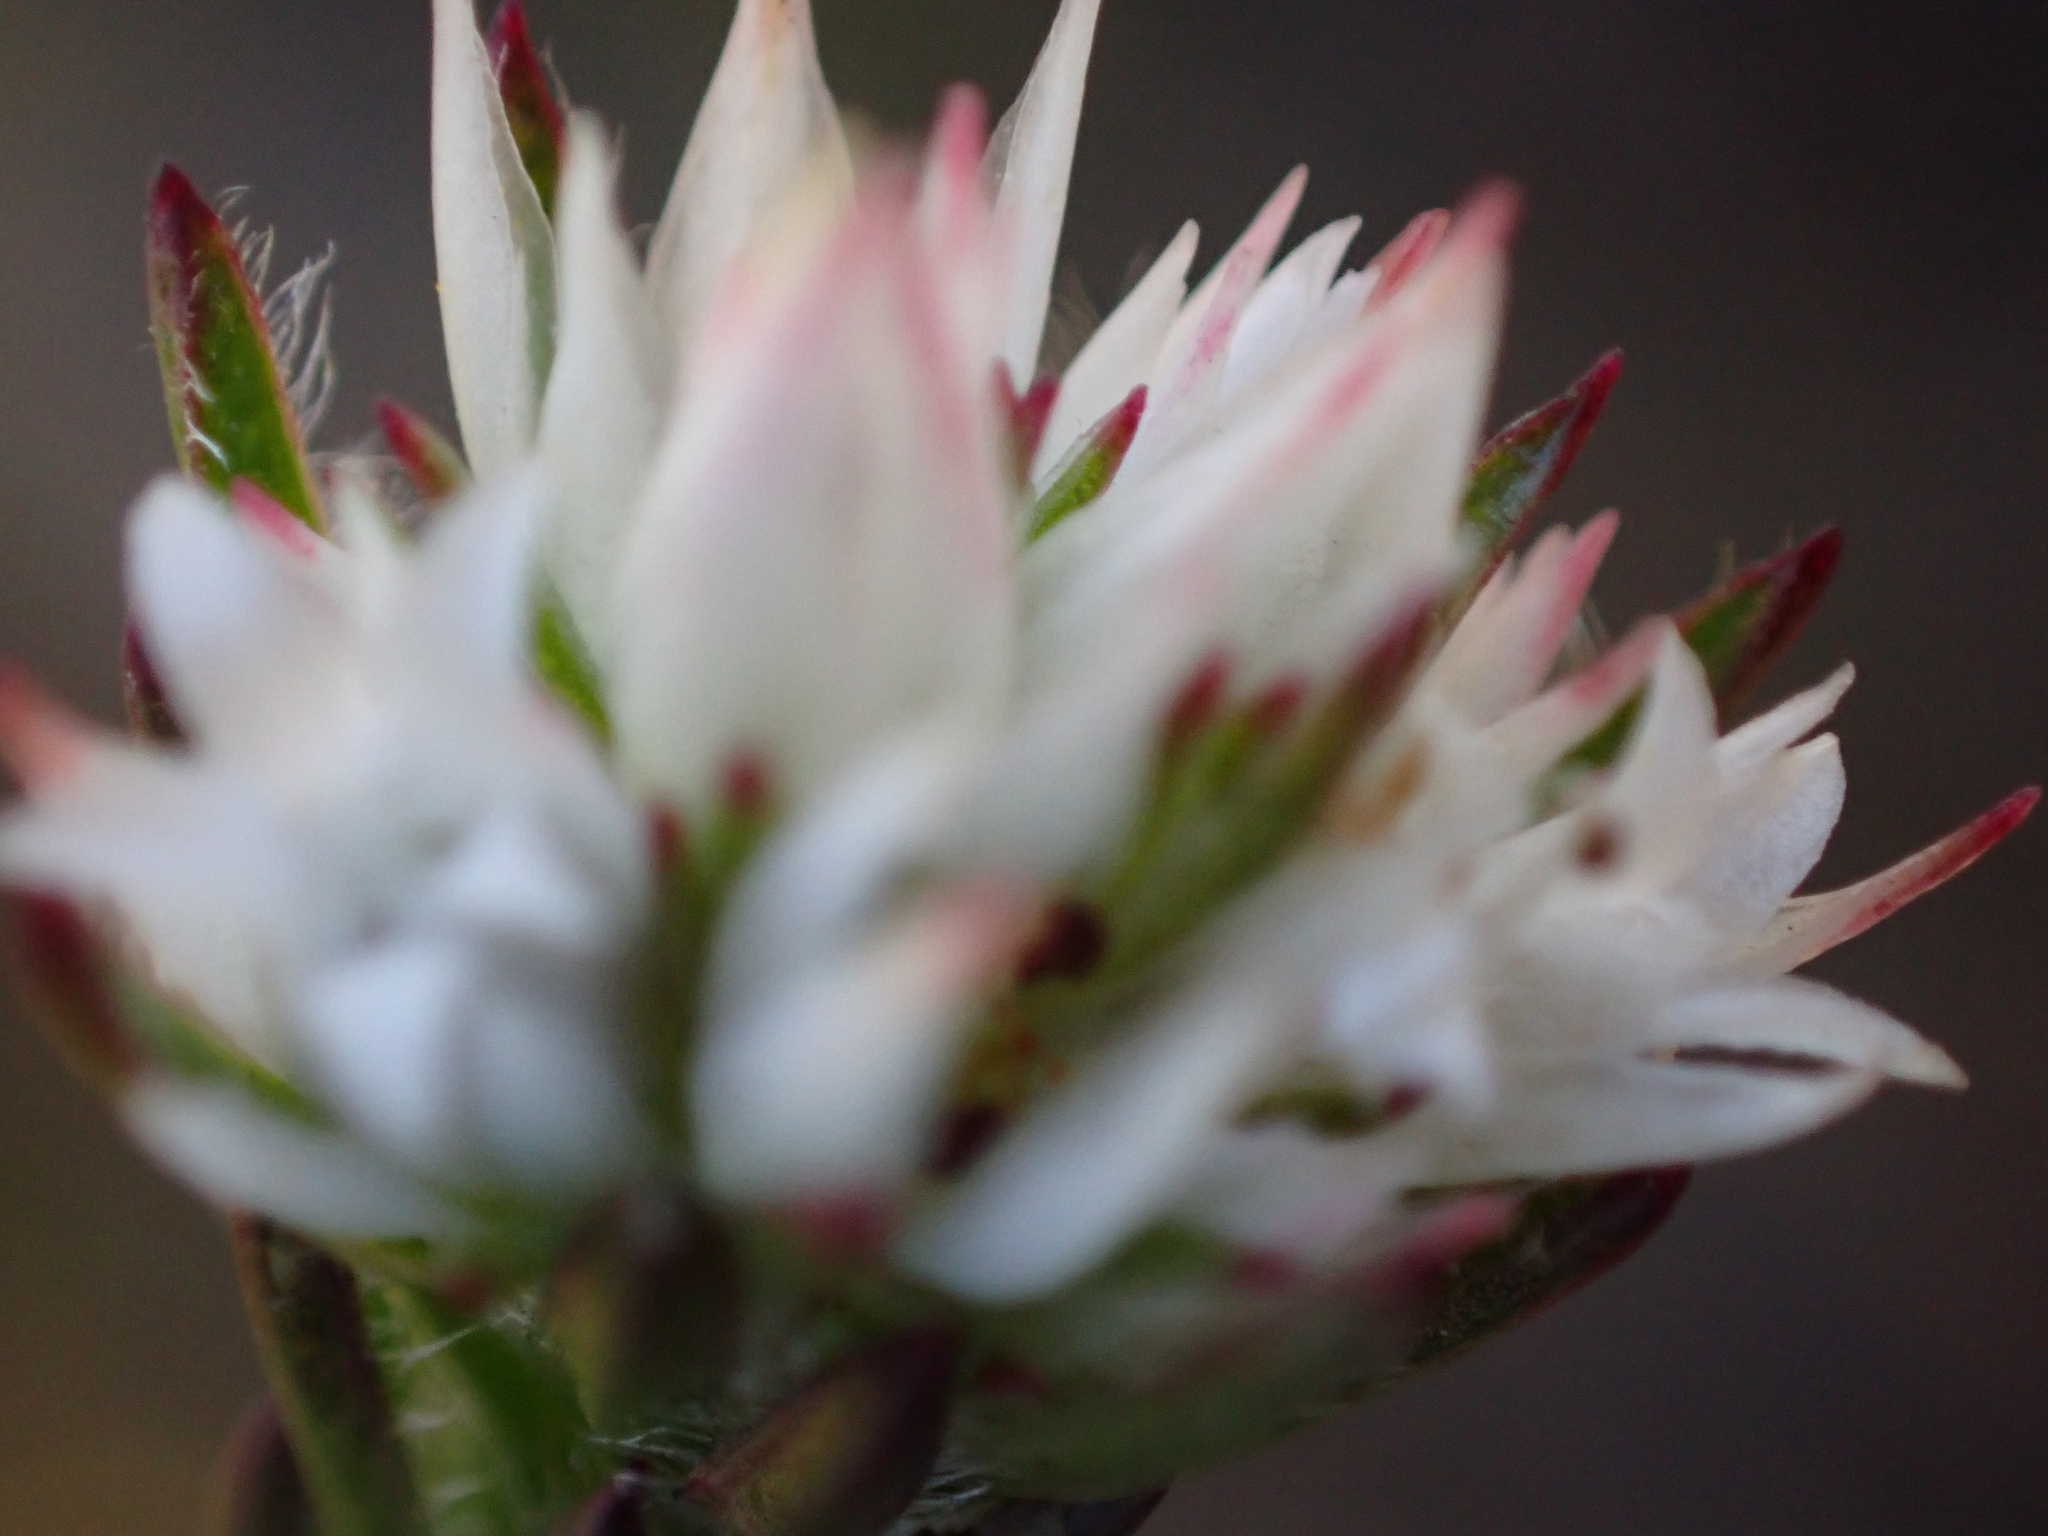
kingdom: Plantae
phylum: Tracheophyta
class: Magnoliopsida
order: Sapindales
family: Rutaceae
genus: Euchaetis
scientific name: Euchaetis avisylvana
